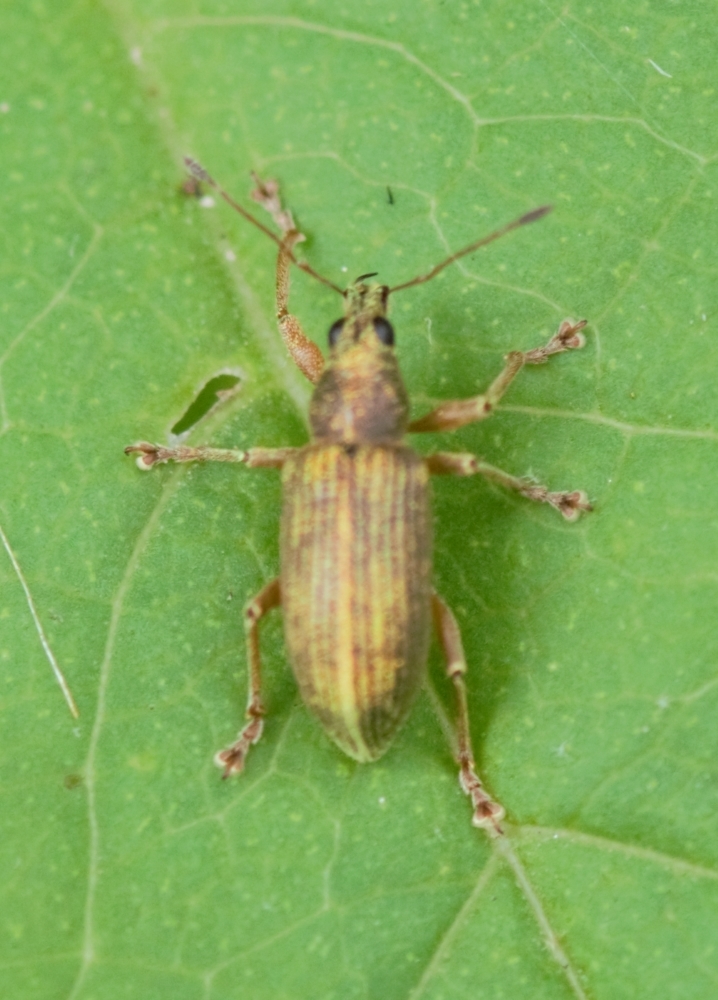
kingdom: Animalia
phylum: Arthropoda
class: Insecta
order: Coleoptera
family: Curculionidae
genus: Polydrusus
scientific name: Polydrusus formosus
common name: Weevil
